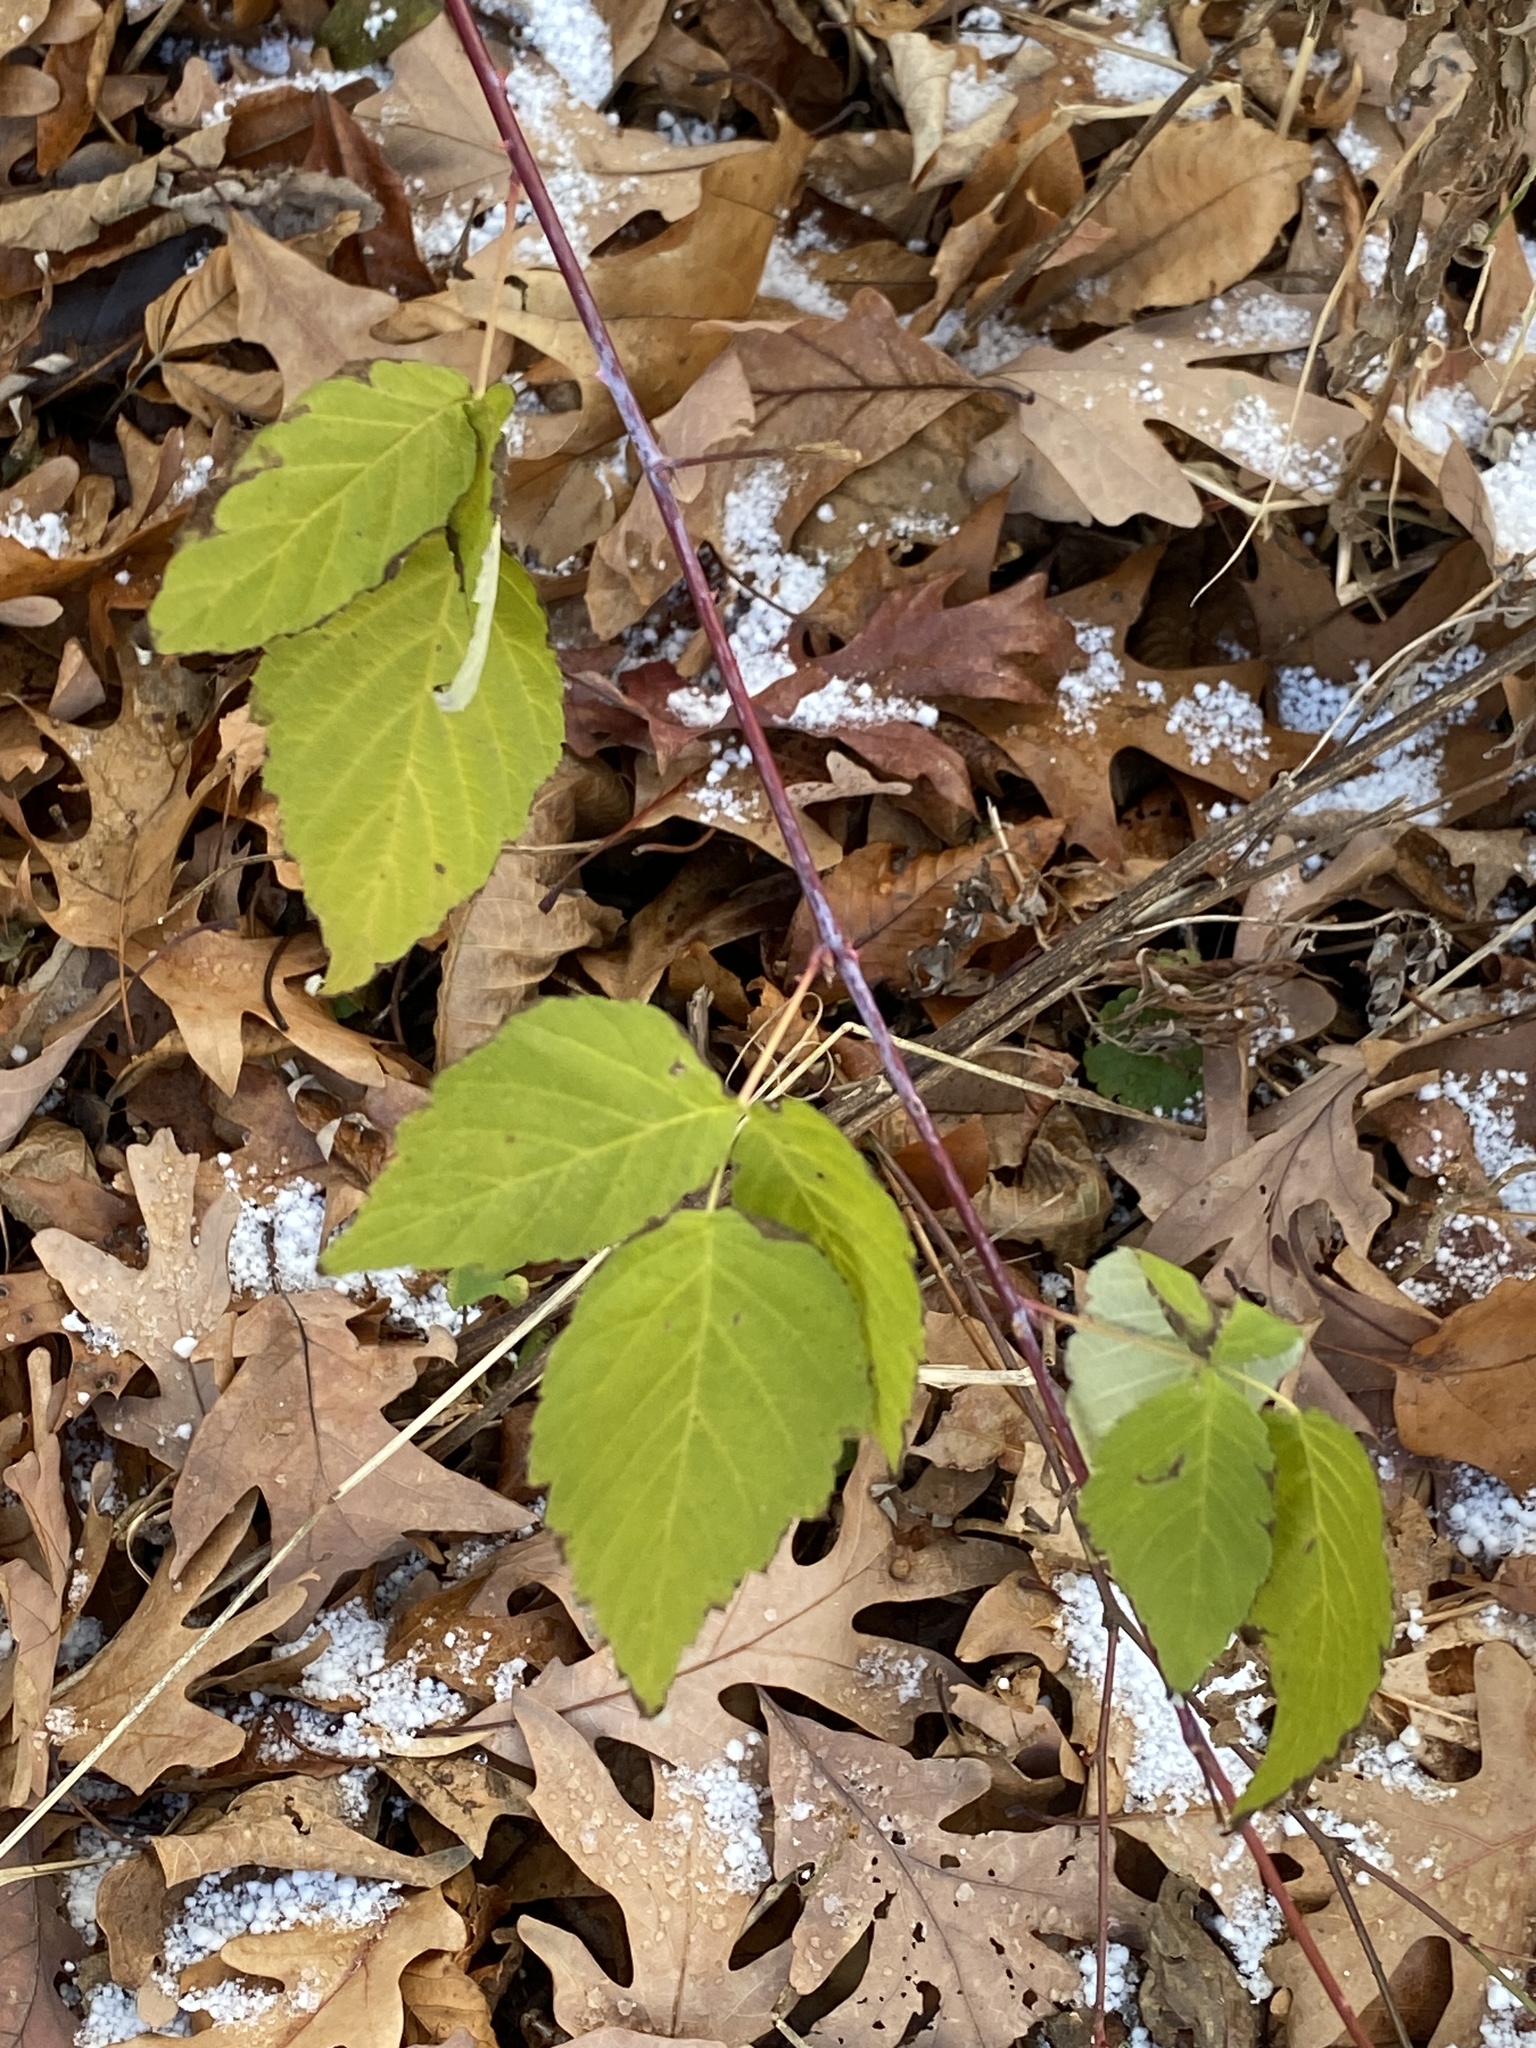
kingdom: Plantae
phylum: Tracheophyta
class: Magnoliopsida
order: Rosales
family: Rosaceae
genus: Rubus
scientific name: Rubus occidentalis
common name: Black raspberry
